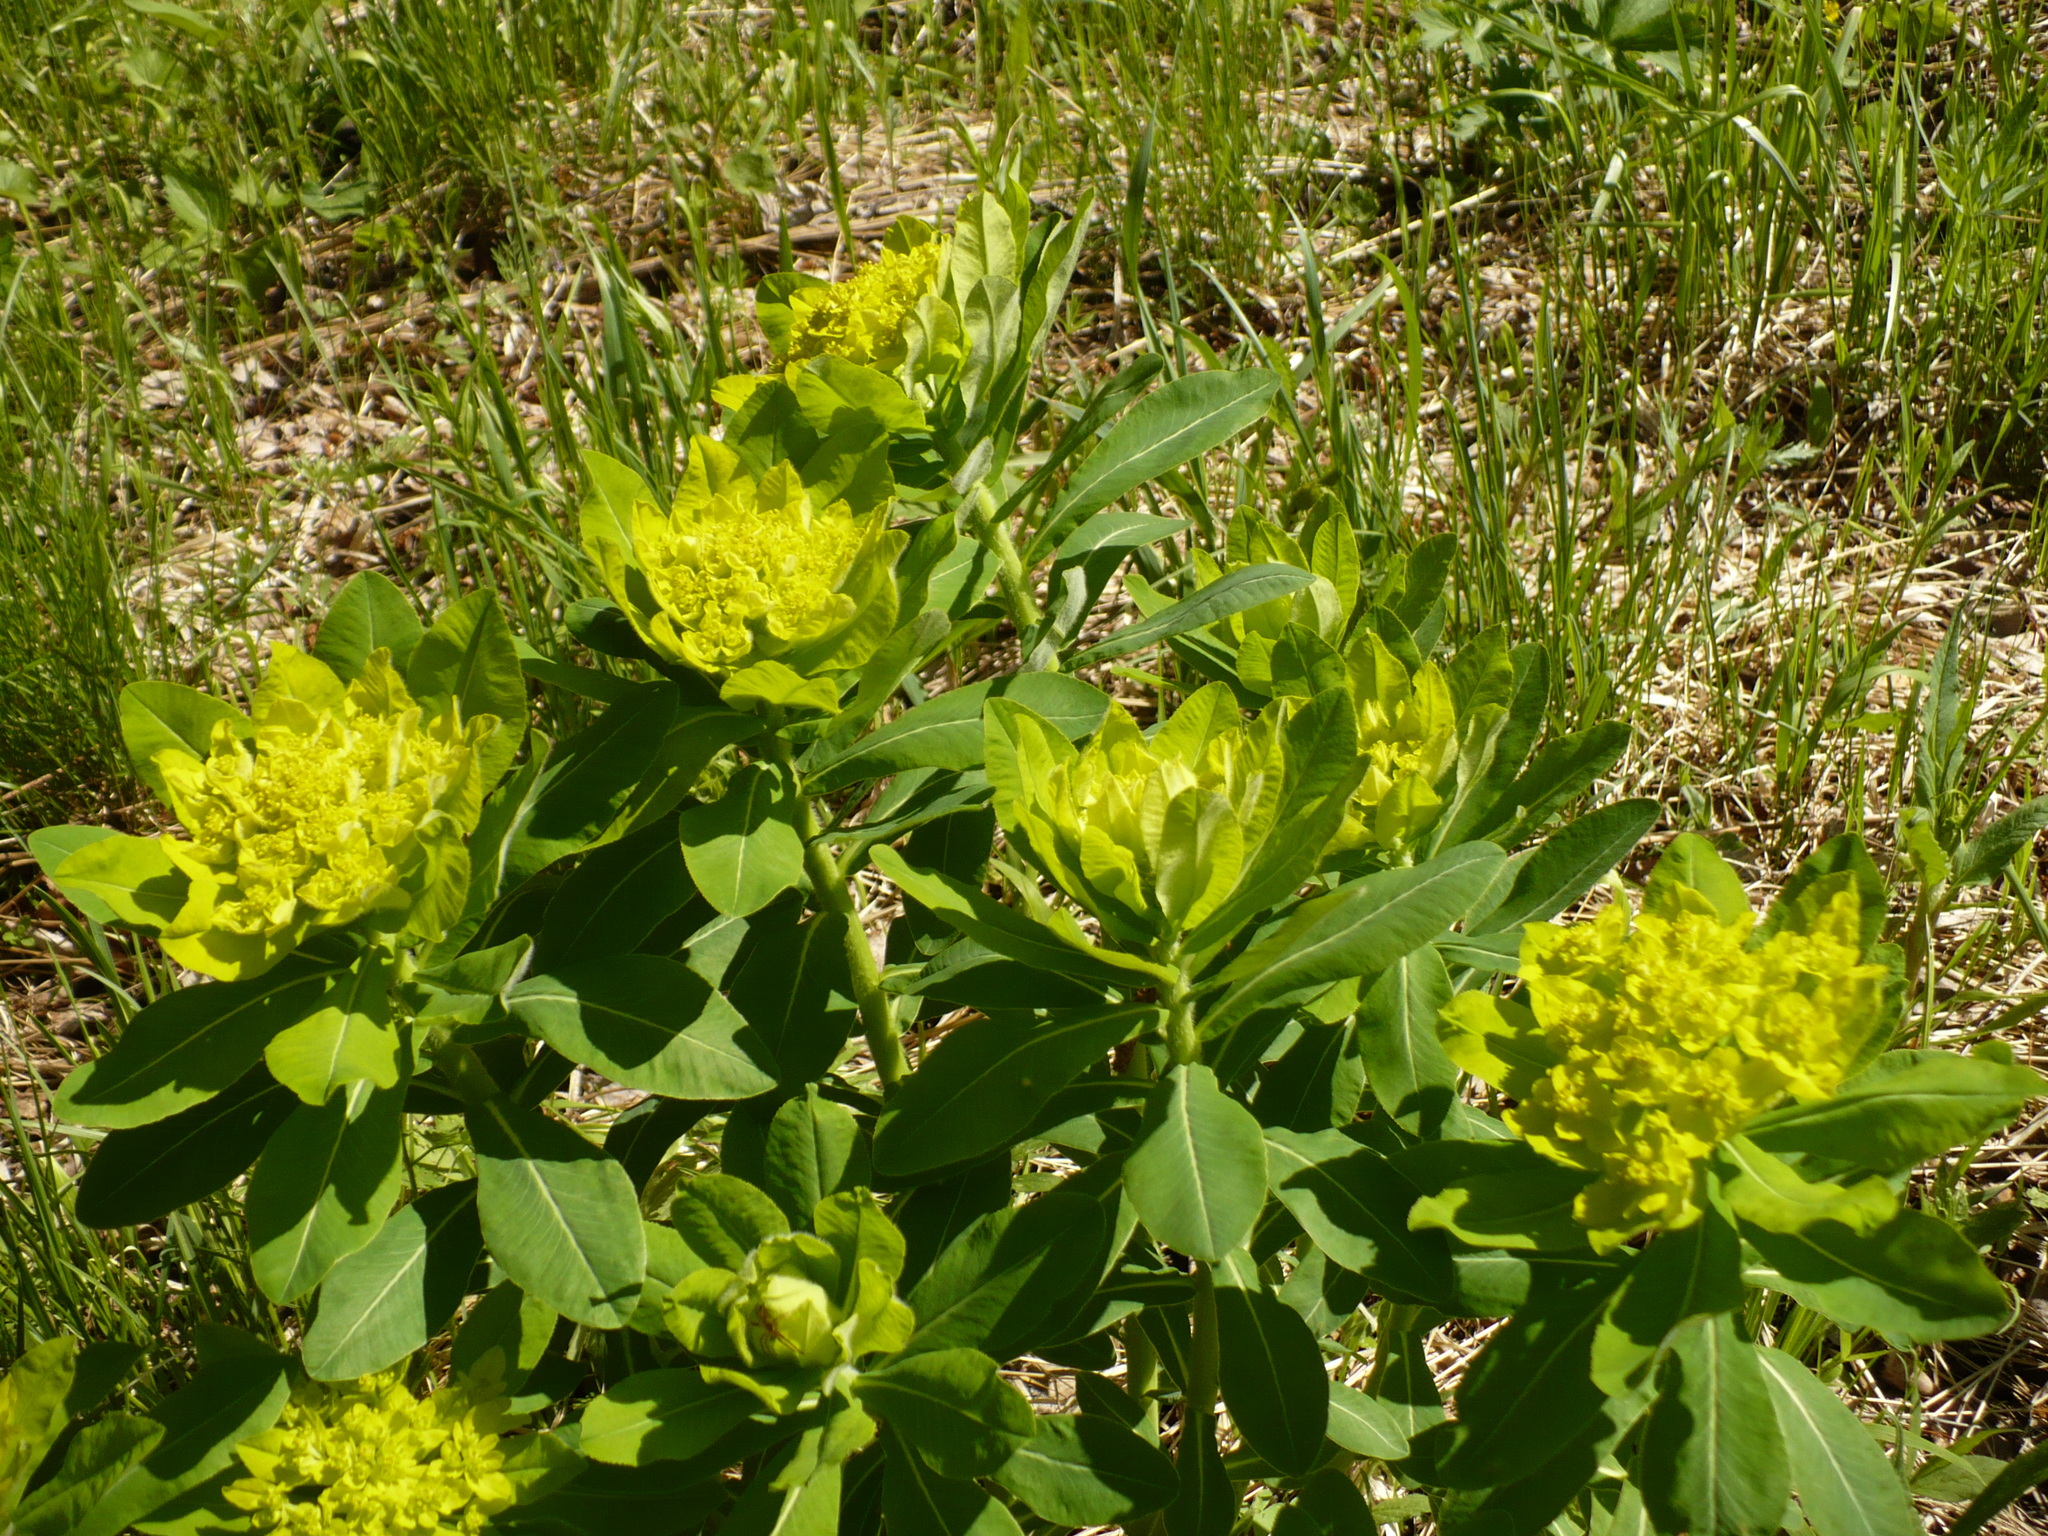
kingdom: Plantae
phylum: Tracheophyta
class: Magnoliopsida
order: Malpighiales
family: Euphorbiaceae
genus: Euphorbia
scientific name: Euphorbia pilosa
